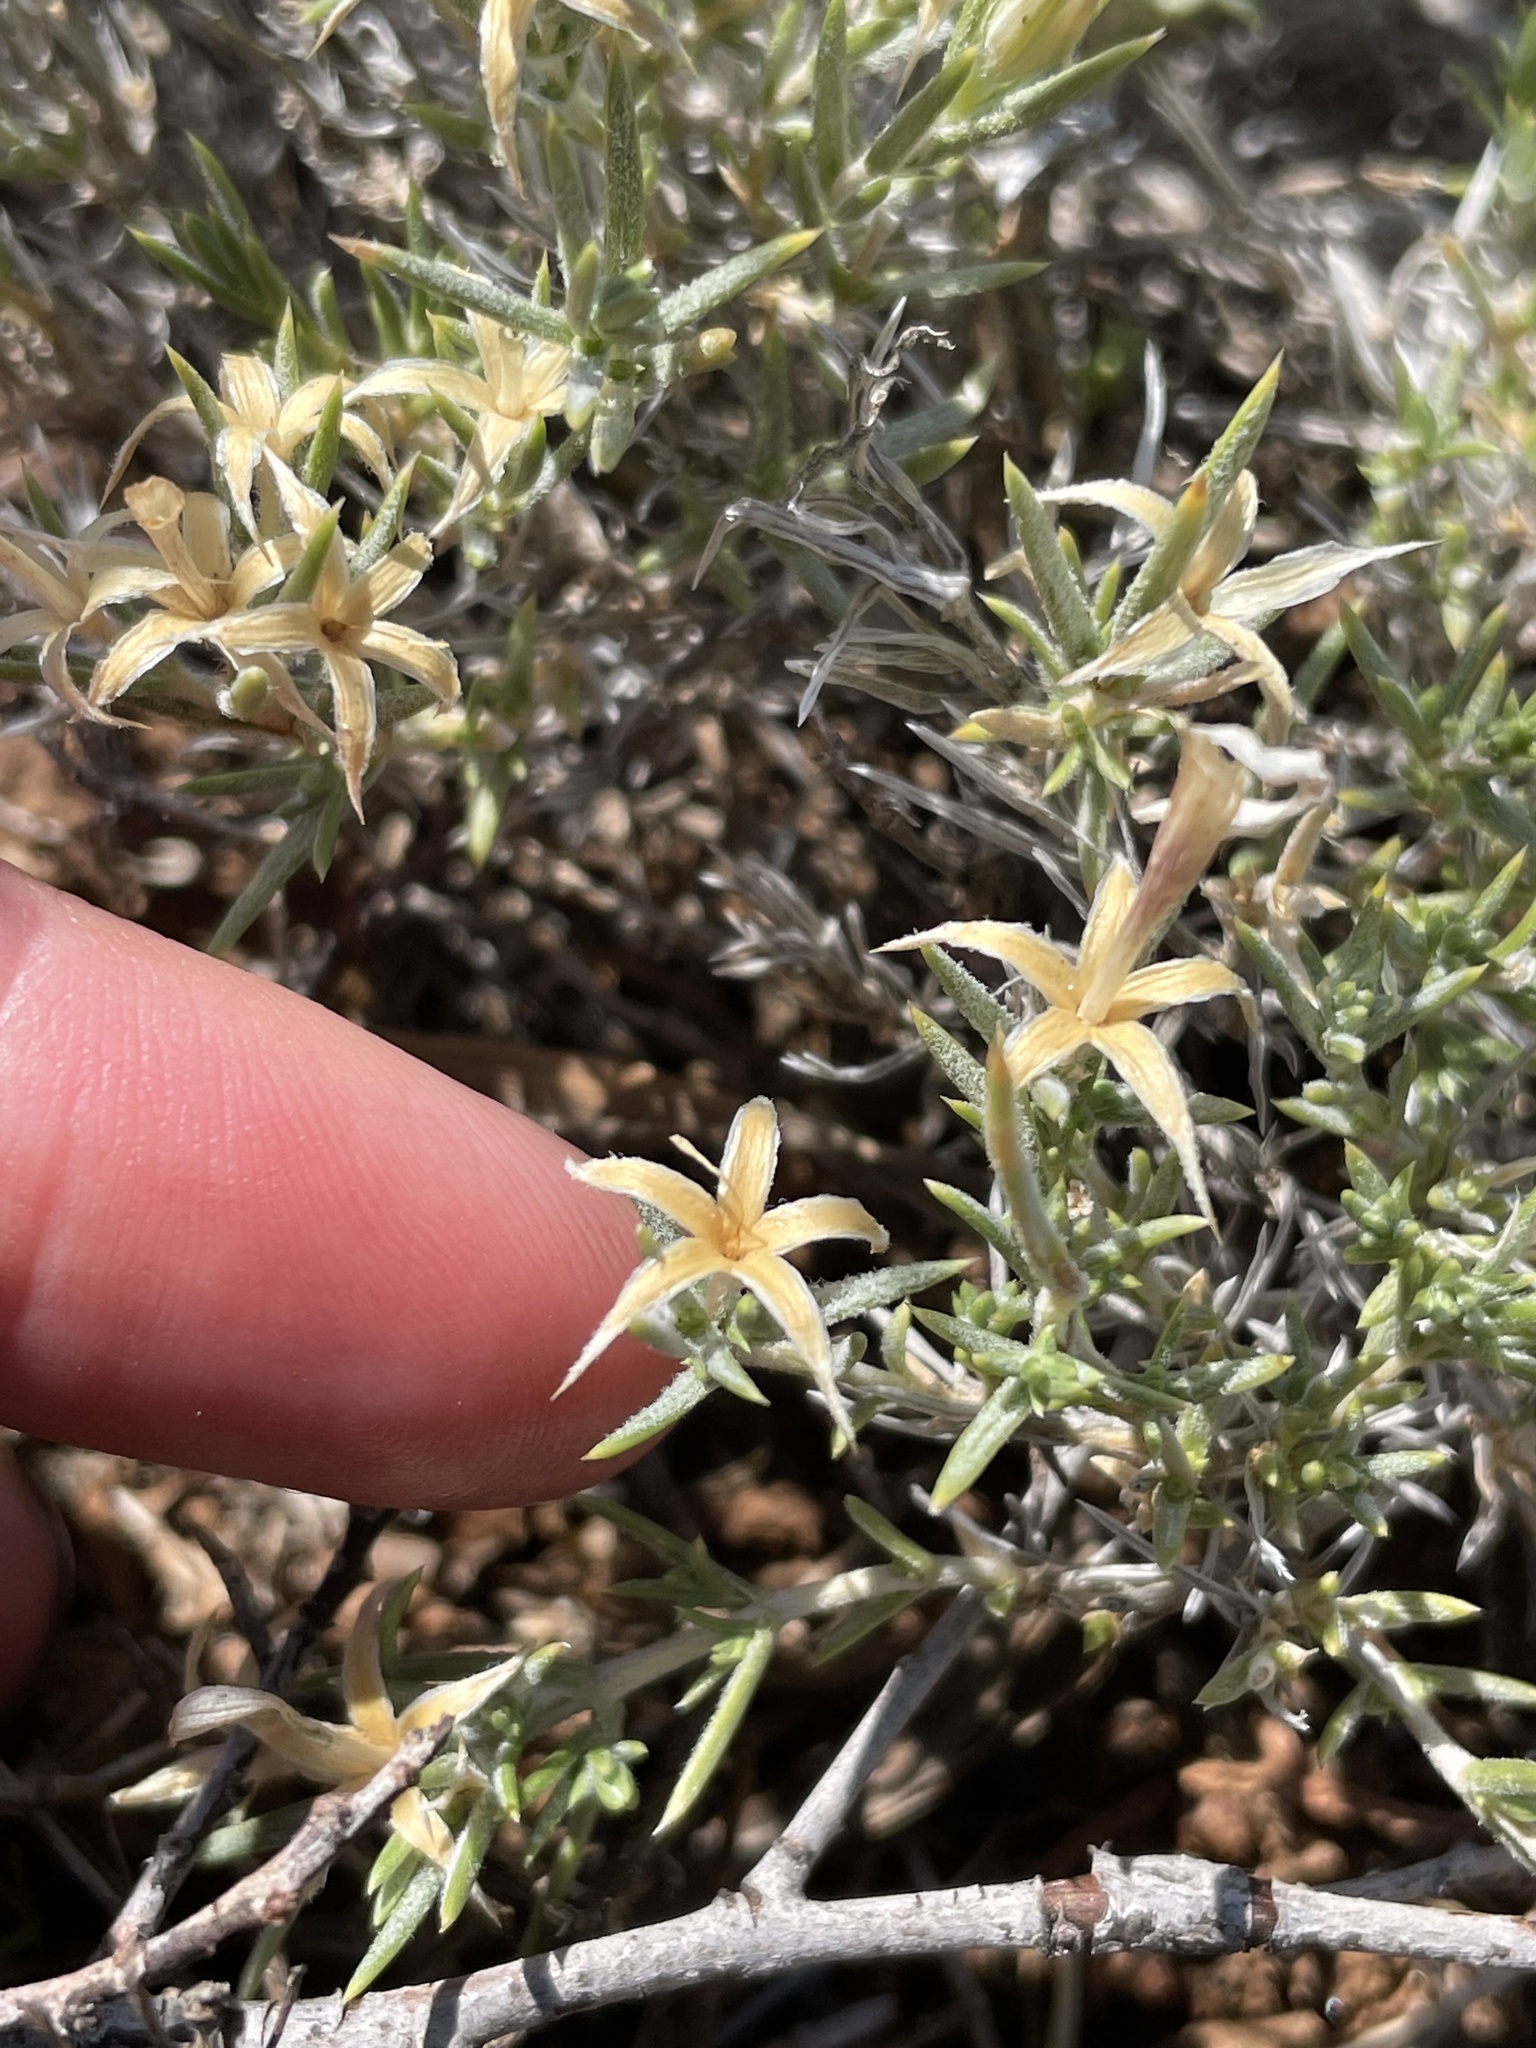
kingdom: Plantae
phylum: Tracheophyta
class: Magnoliopsida
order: Ericales
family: Polemoniaceae
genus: Phlox
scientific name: Phlox austromontana
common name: Desert phlox
